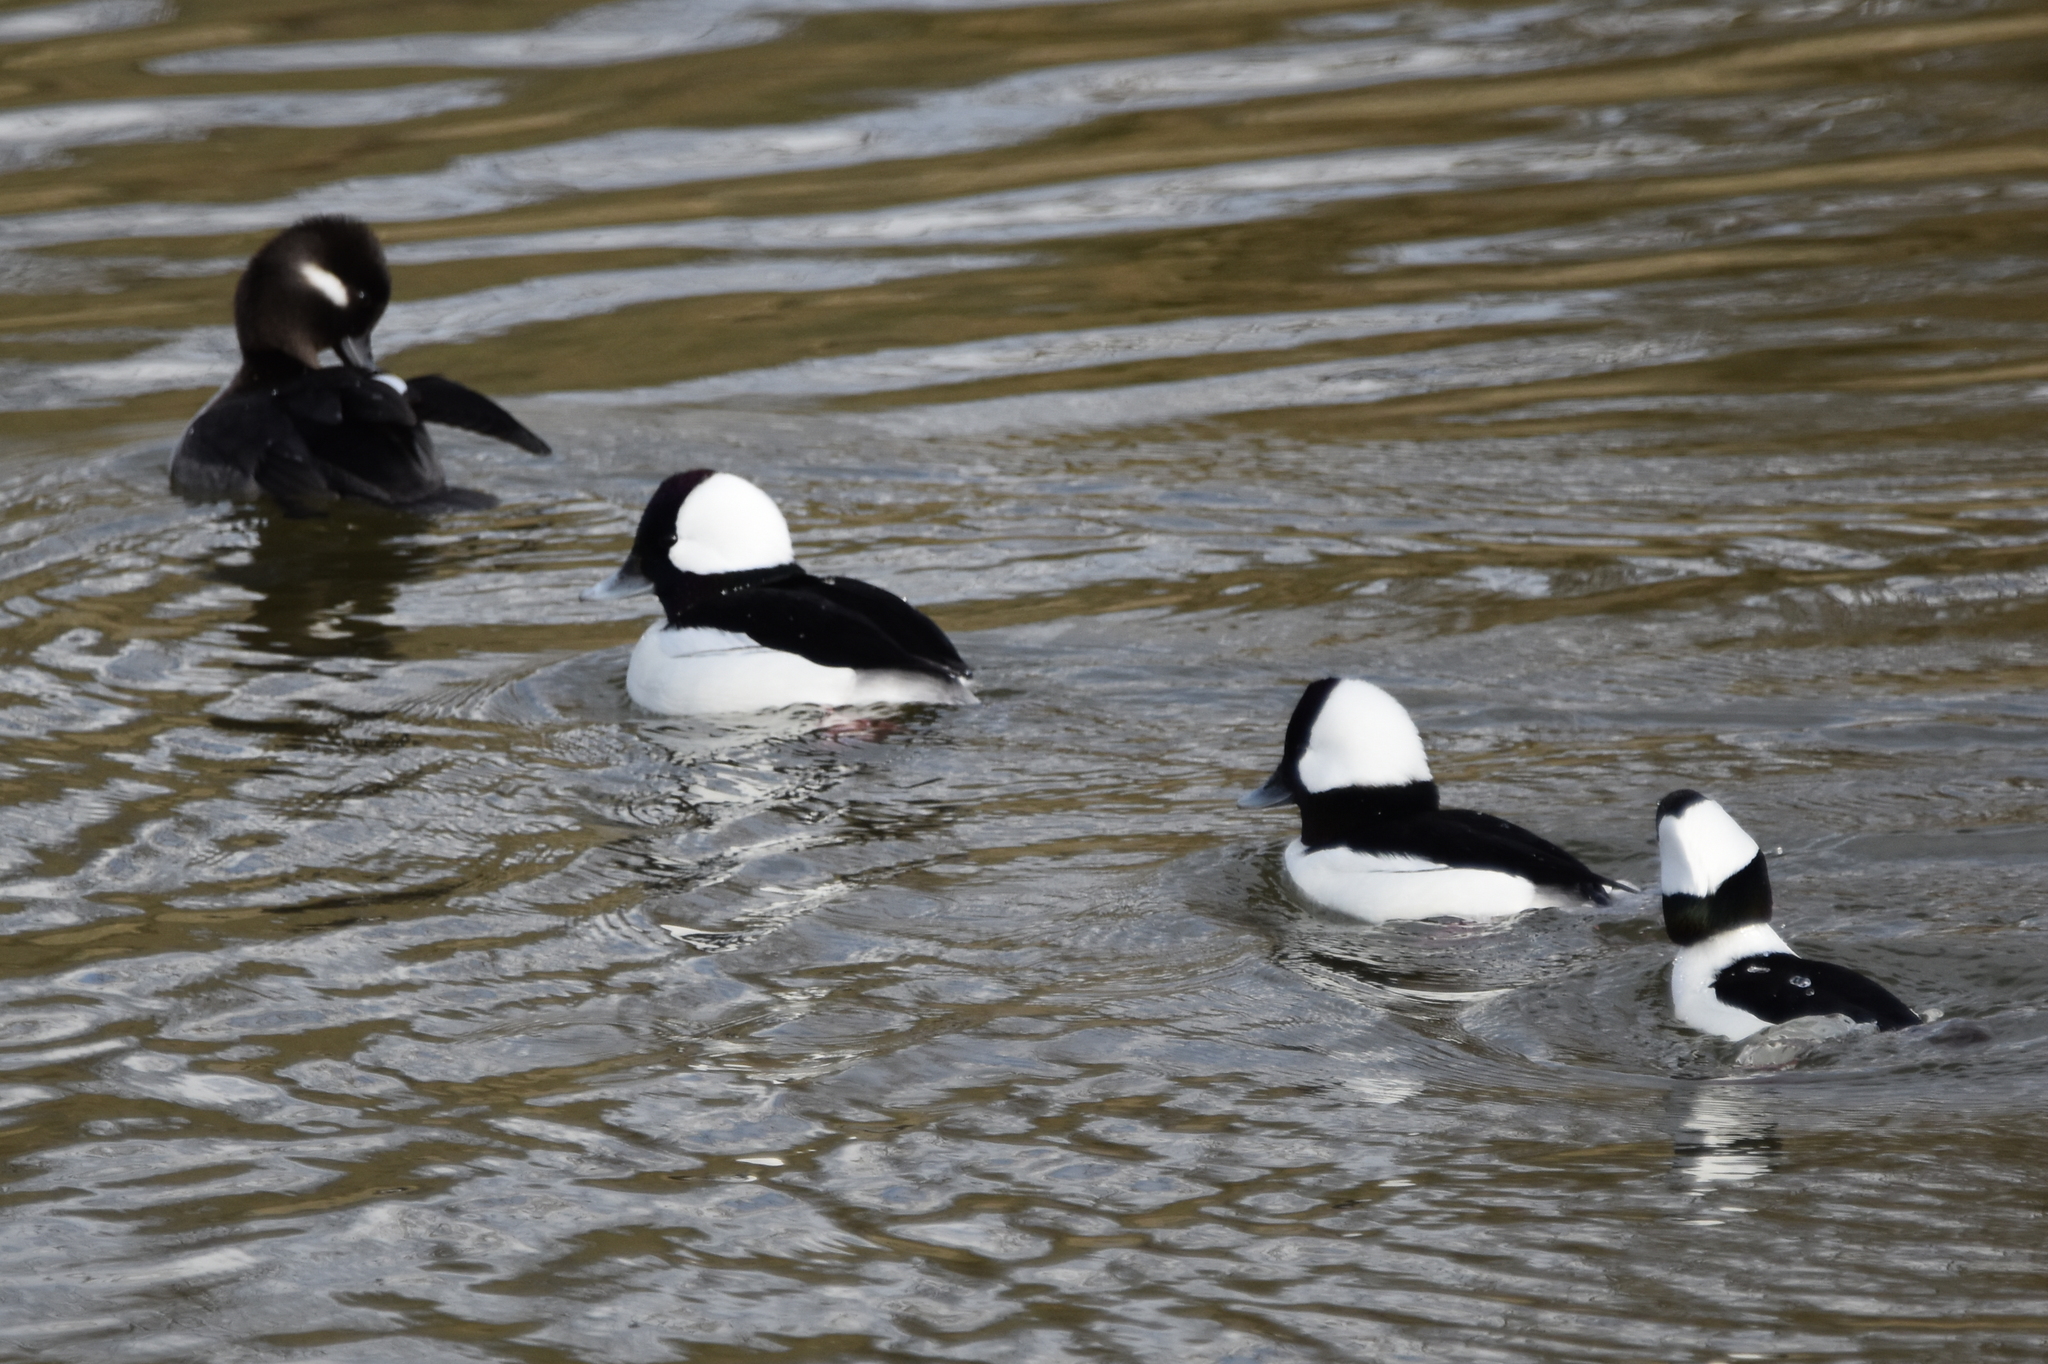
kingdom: Animalia
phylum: Chordata
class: Aves
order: Anseriformes
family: Anatidae
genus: Bucephala
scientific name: Bucephala albeola
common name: Bufflehead
